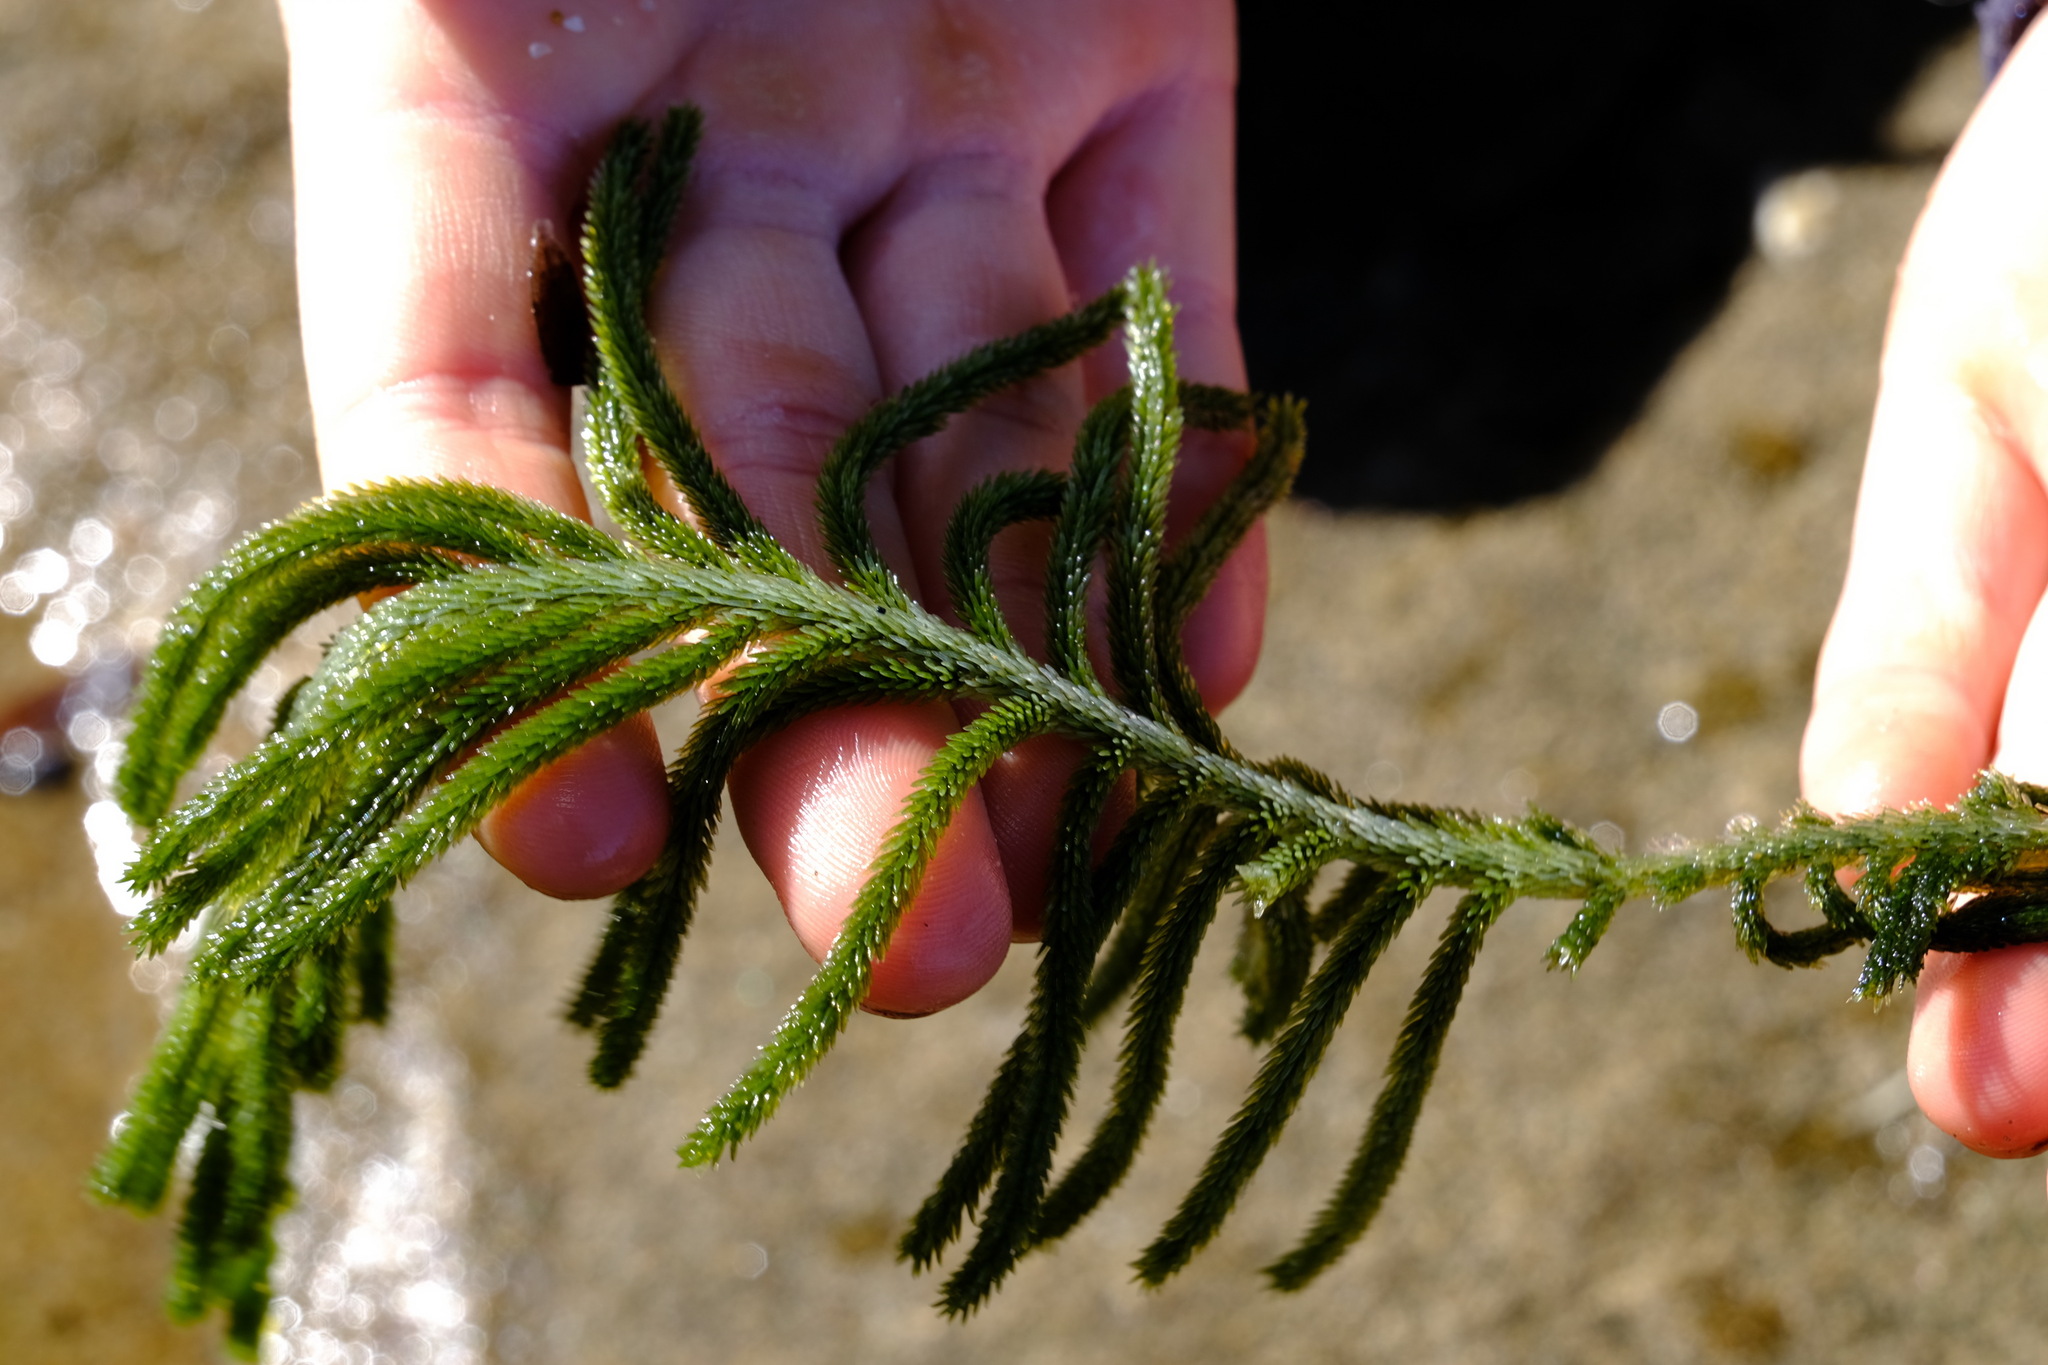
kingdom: Plantae
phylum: Chlorophyta
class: Ulvophyceae
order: Bryopsidales
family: Caulerpaceae
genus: Caulerpa
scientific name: Caulerpa
